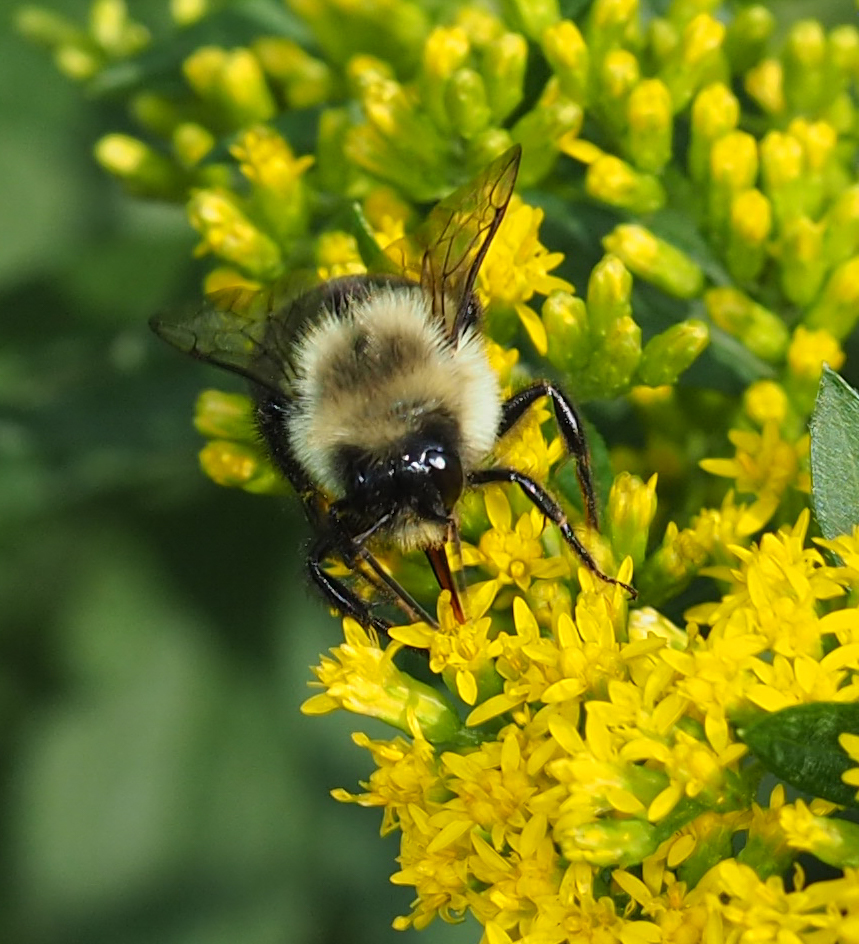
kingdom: Animalia
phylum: Arthropoda
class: Insecta
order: Hymenoptera
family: Apidae
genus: Bombus
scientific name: Bombus impatiens
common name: Common eastern bumble bee
